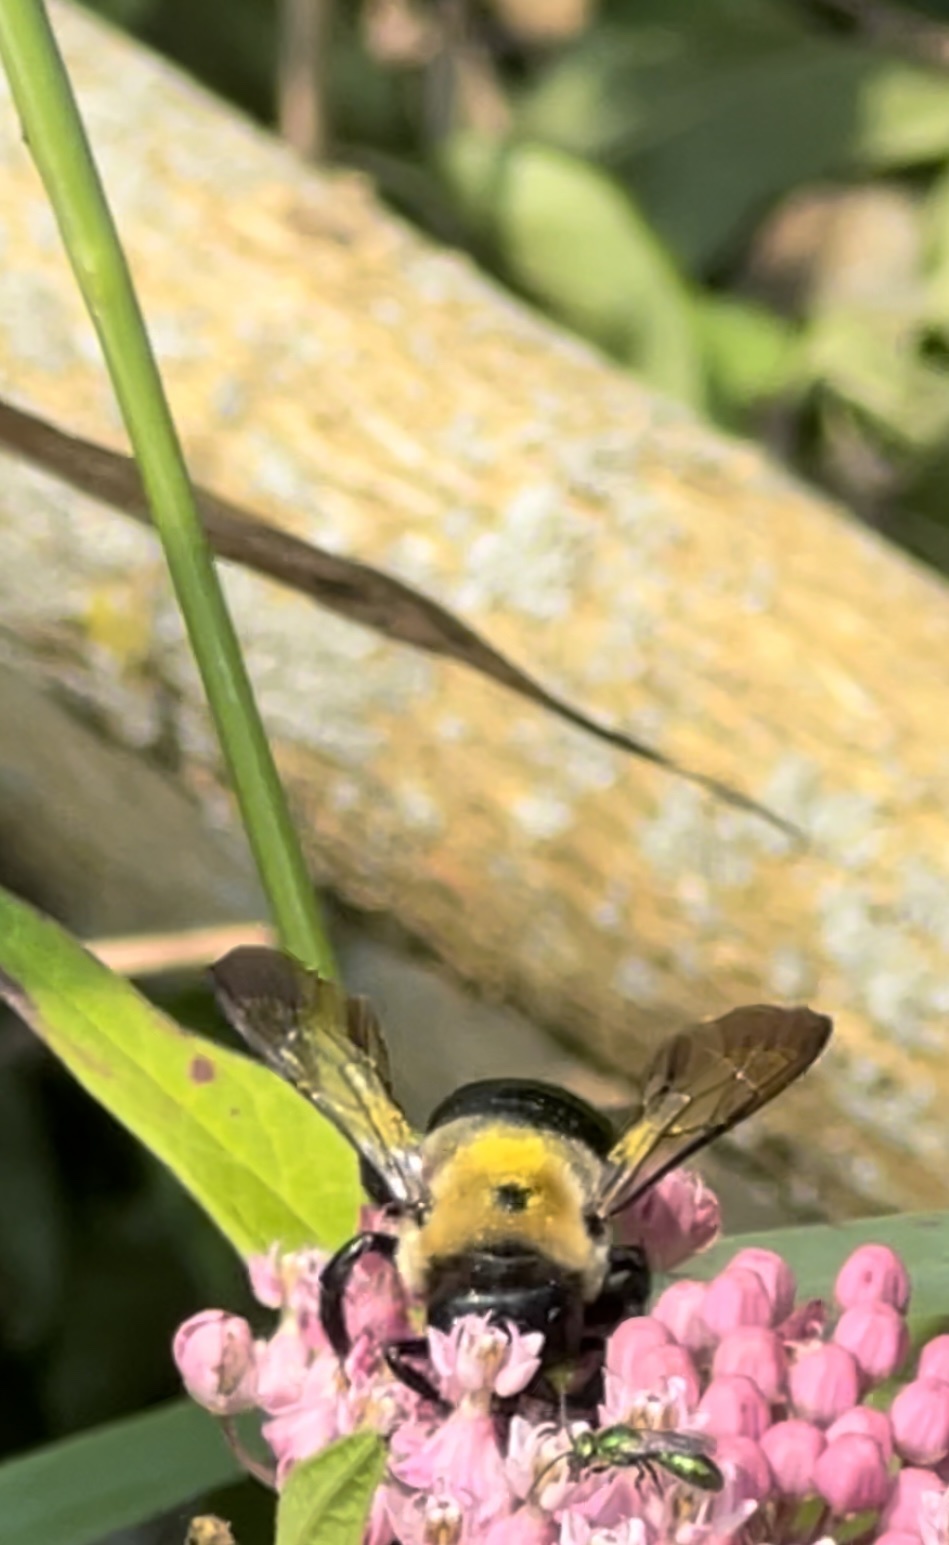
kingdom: Animalia
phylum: Arthropoda
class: Insecta
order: Hymenoptera
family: Apidae
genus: Xylocopa
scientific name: Xylocopa virginica
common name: Carpenter bee
